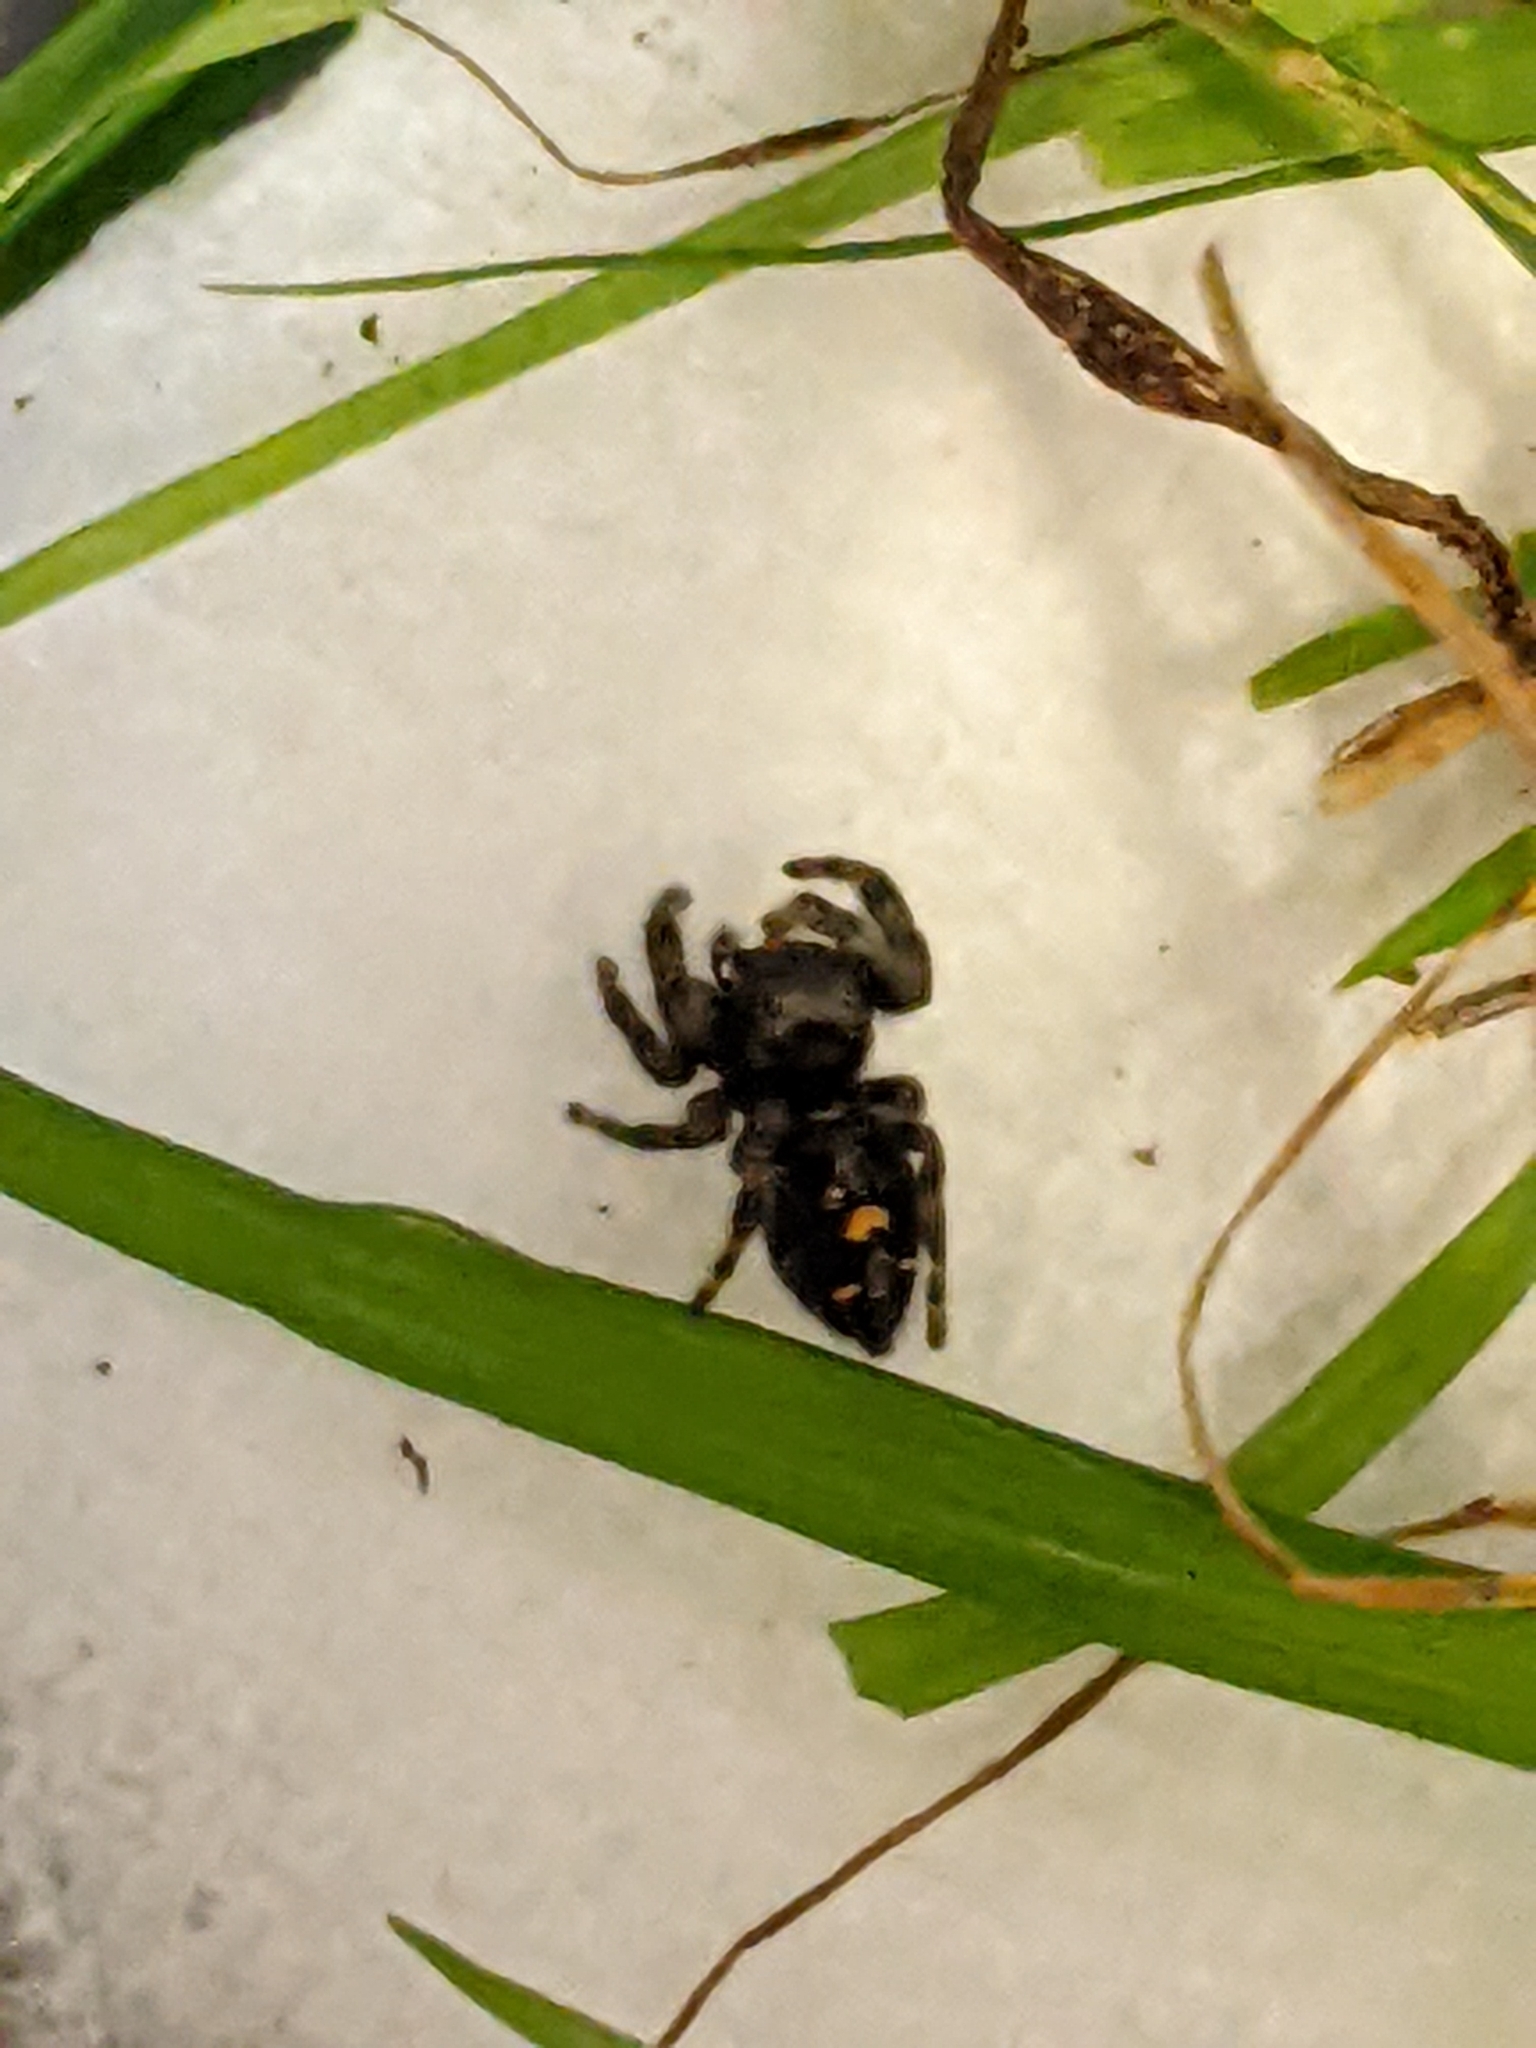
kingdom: Animalia
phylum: Arthropoda
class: Arachnida
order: Araneae
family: Salticidae
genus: Phidippus
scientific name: Phidippus audax
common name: Bold jumper
